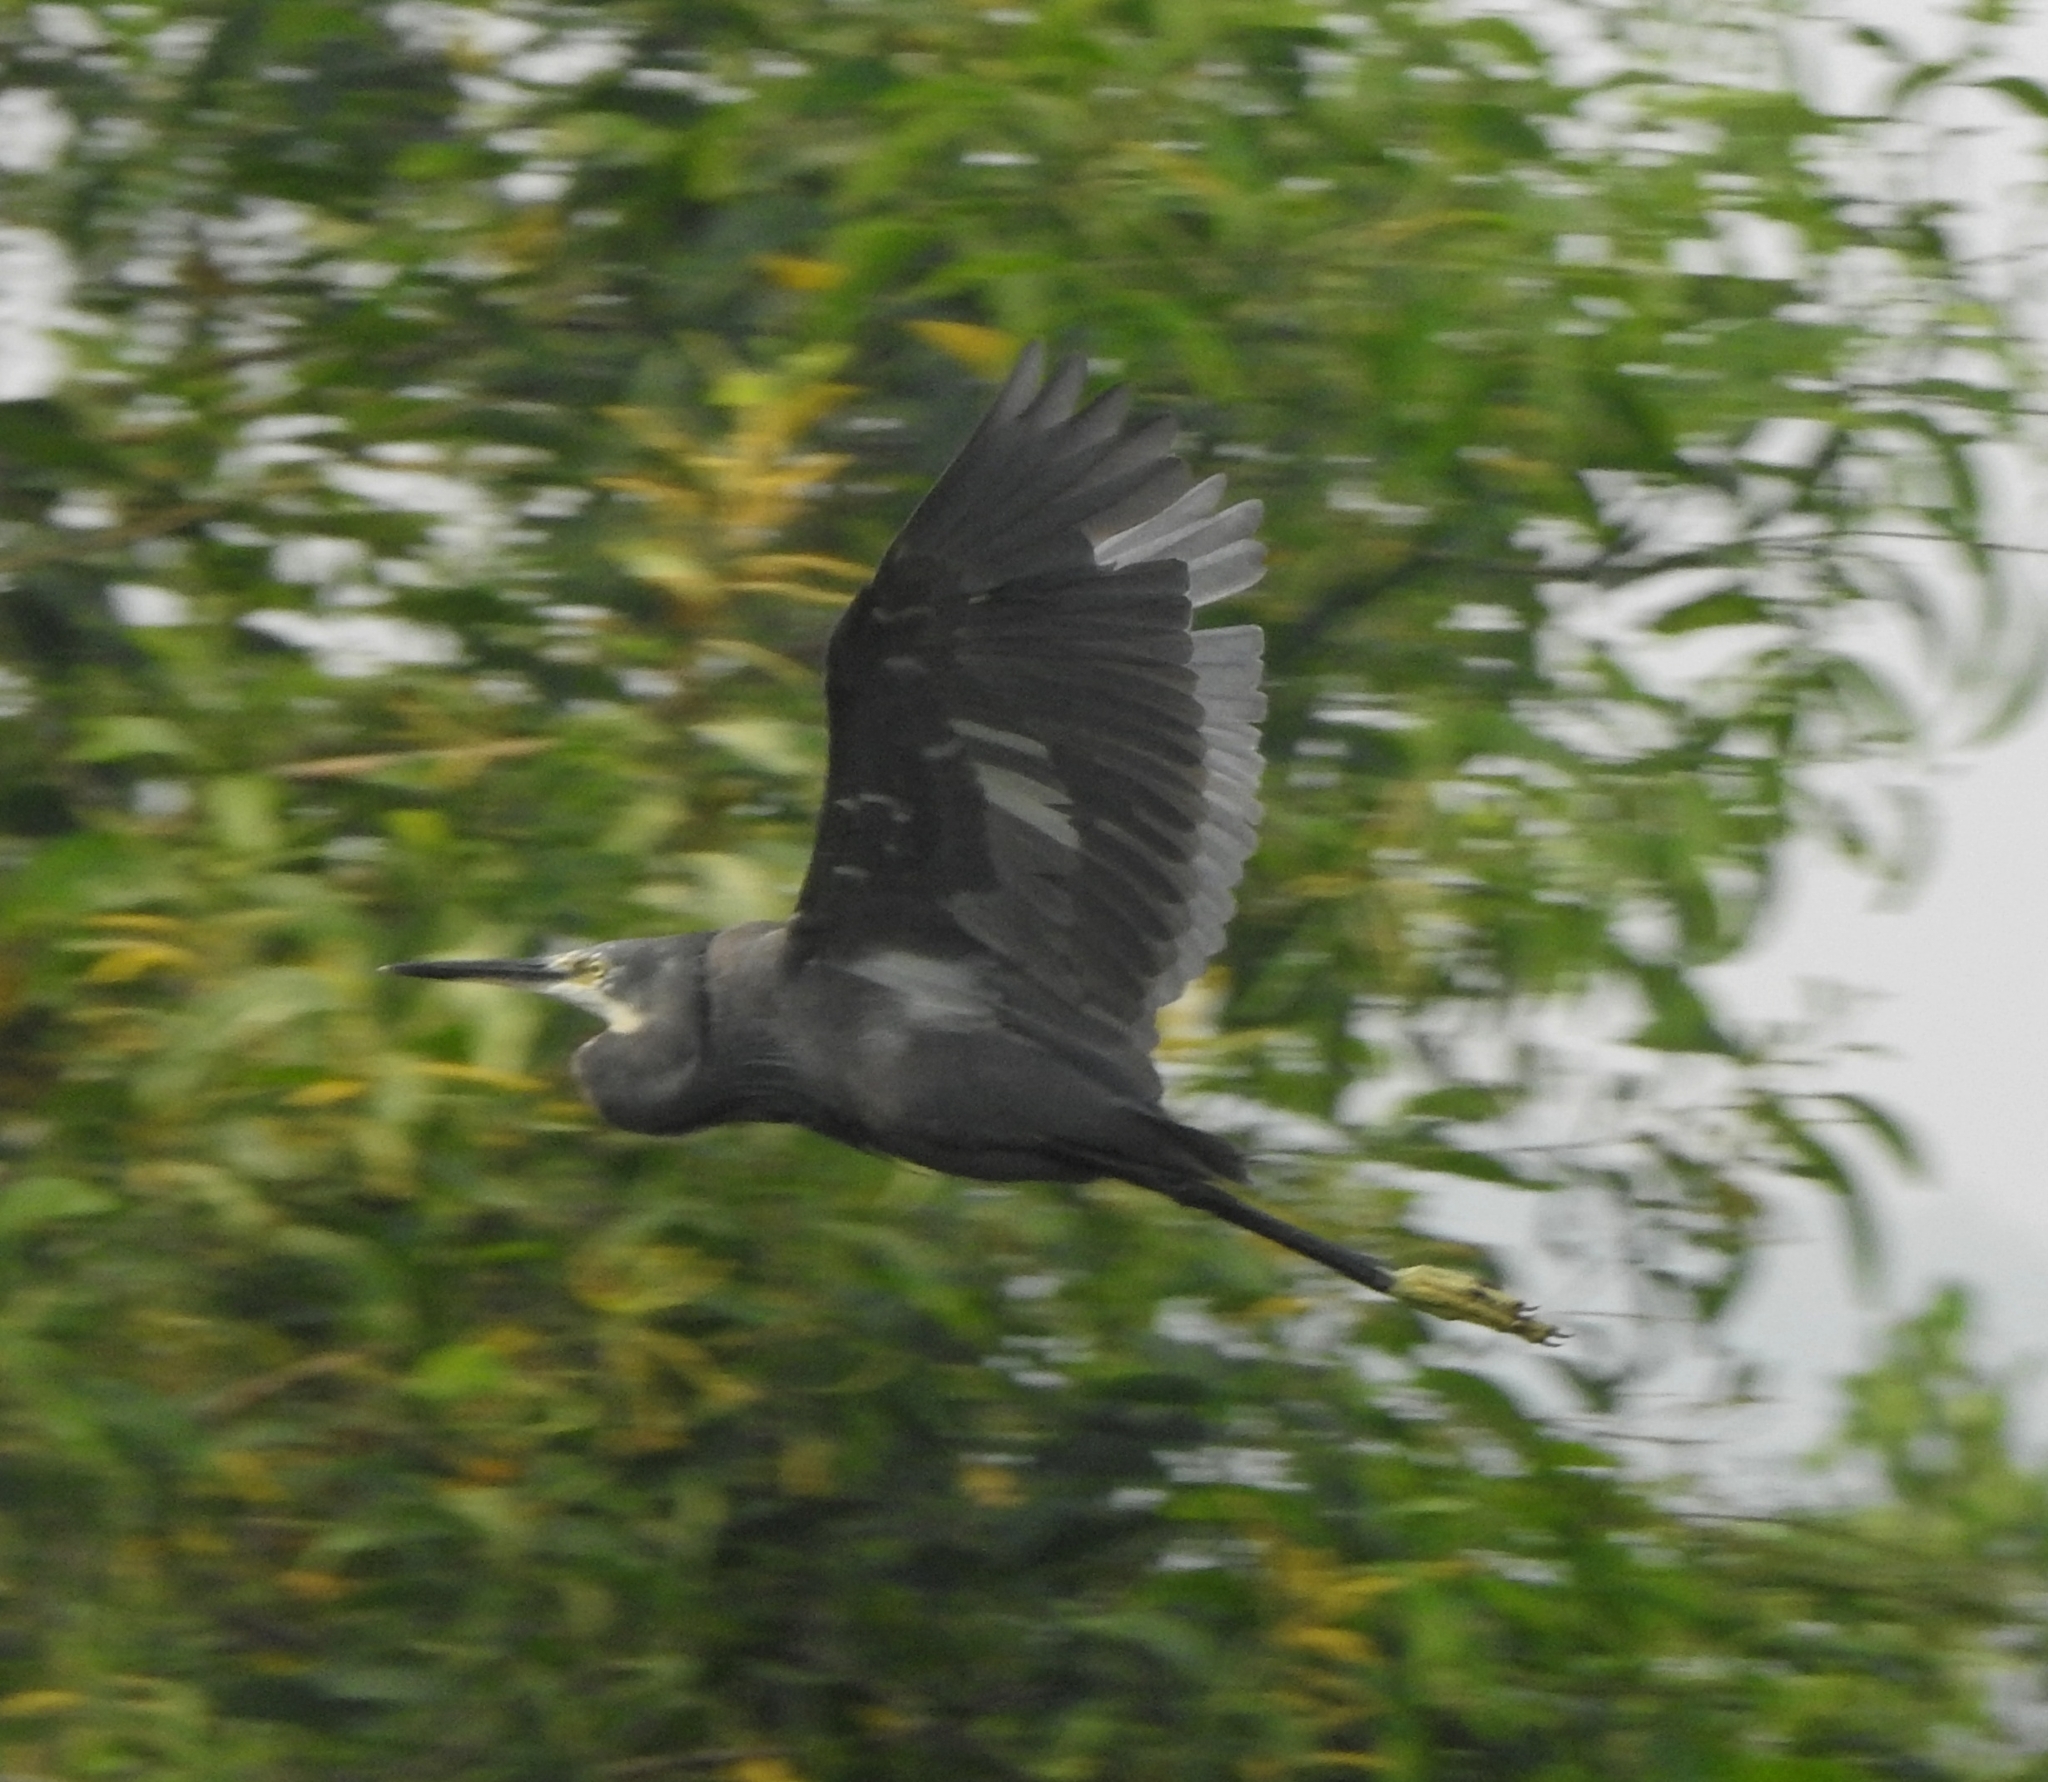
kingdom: Animalia
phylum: Chordata
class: Aves
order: Pelecaniformes
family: Ardeidae
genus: Egretta
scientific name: Egretta garzetta
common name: Little egret
